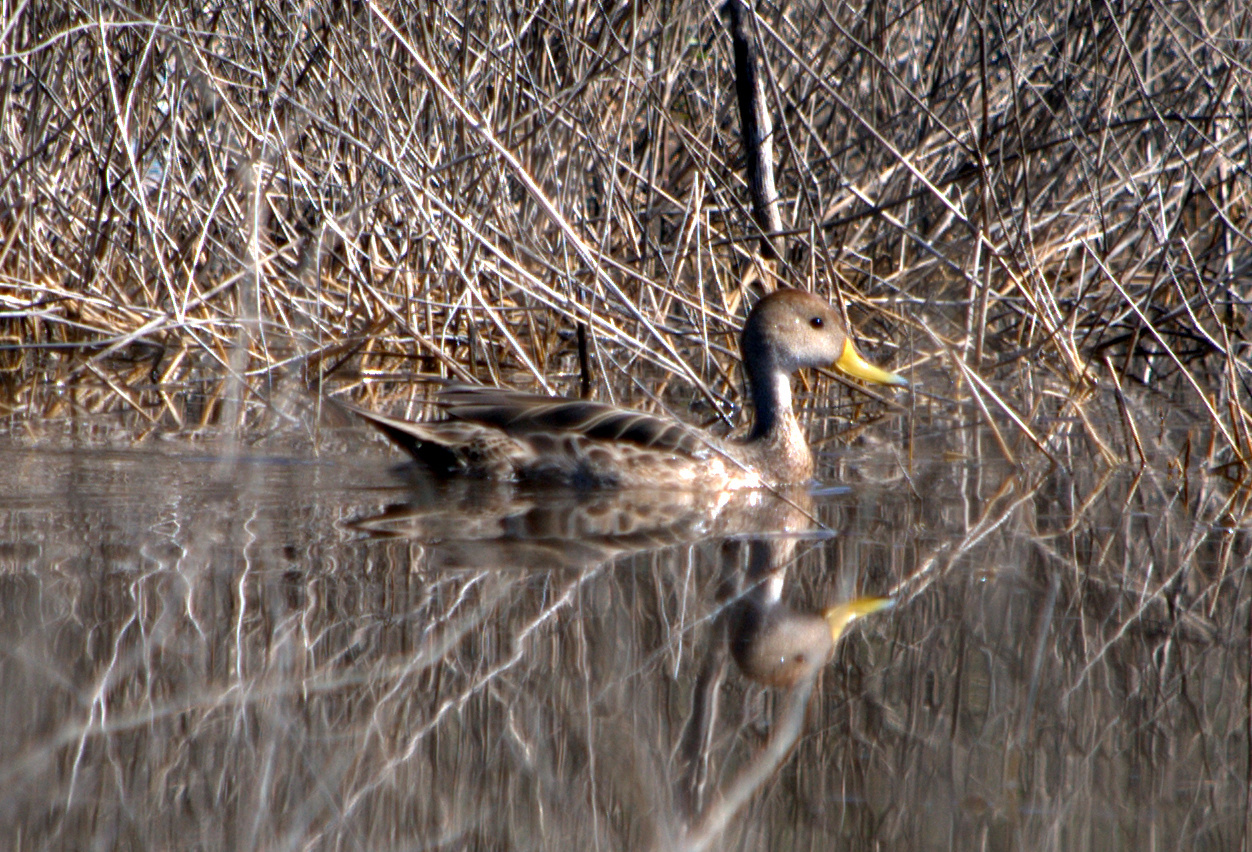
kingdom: Animalia
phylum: Chordata
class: Aves
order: Anseriformes
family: Anatidae
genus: Anas
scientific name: Anas georgica
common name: Yellow-billed pintail
